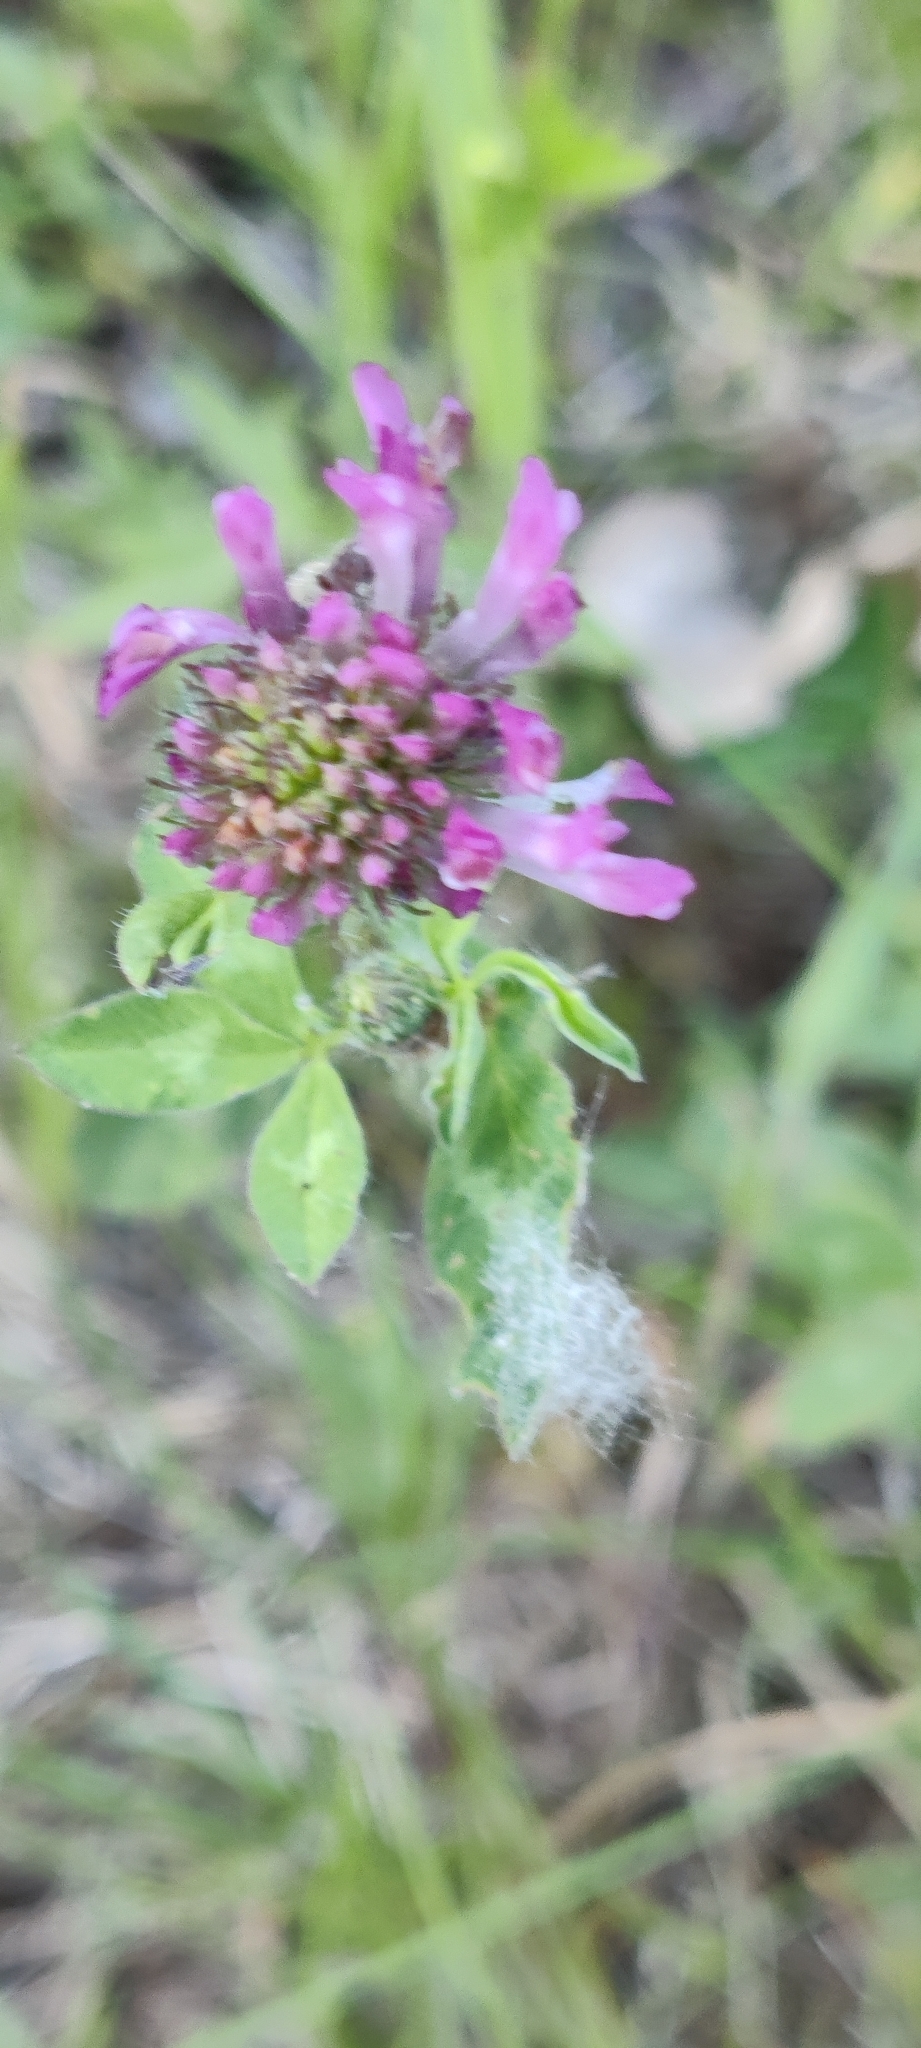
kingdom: Plantae
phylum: Tracheophyta
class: Magnoliopsida
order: Fabales
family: Fabaceae
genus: Trifolium
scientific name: Trifolium pratense
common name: Red clover
